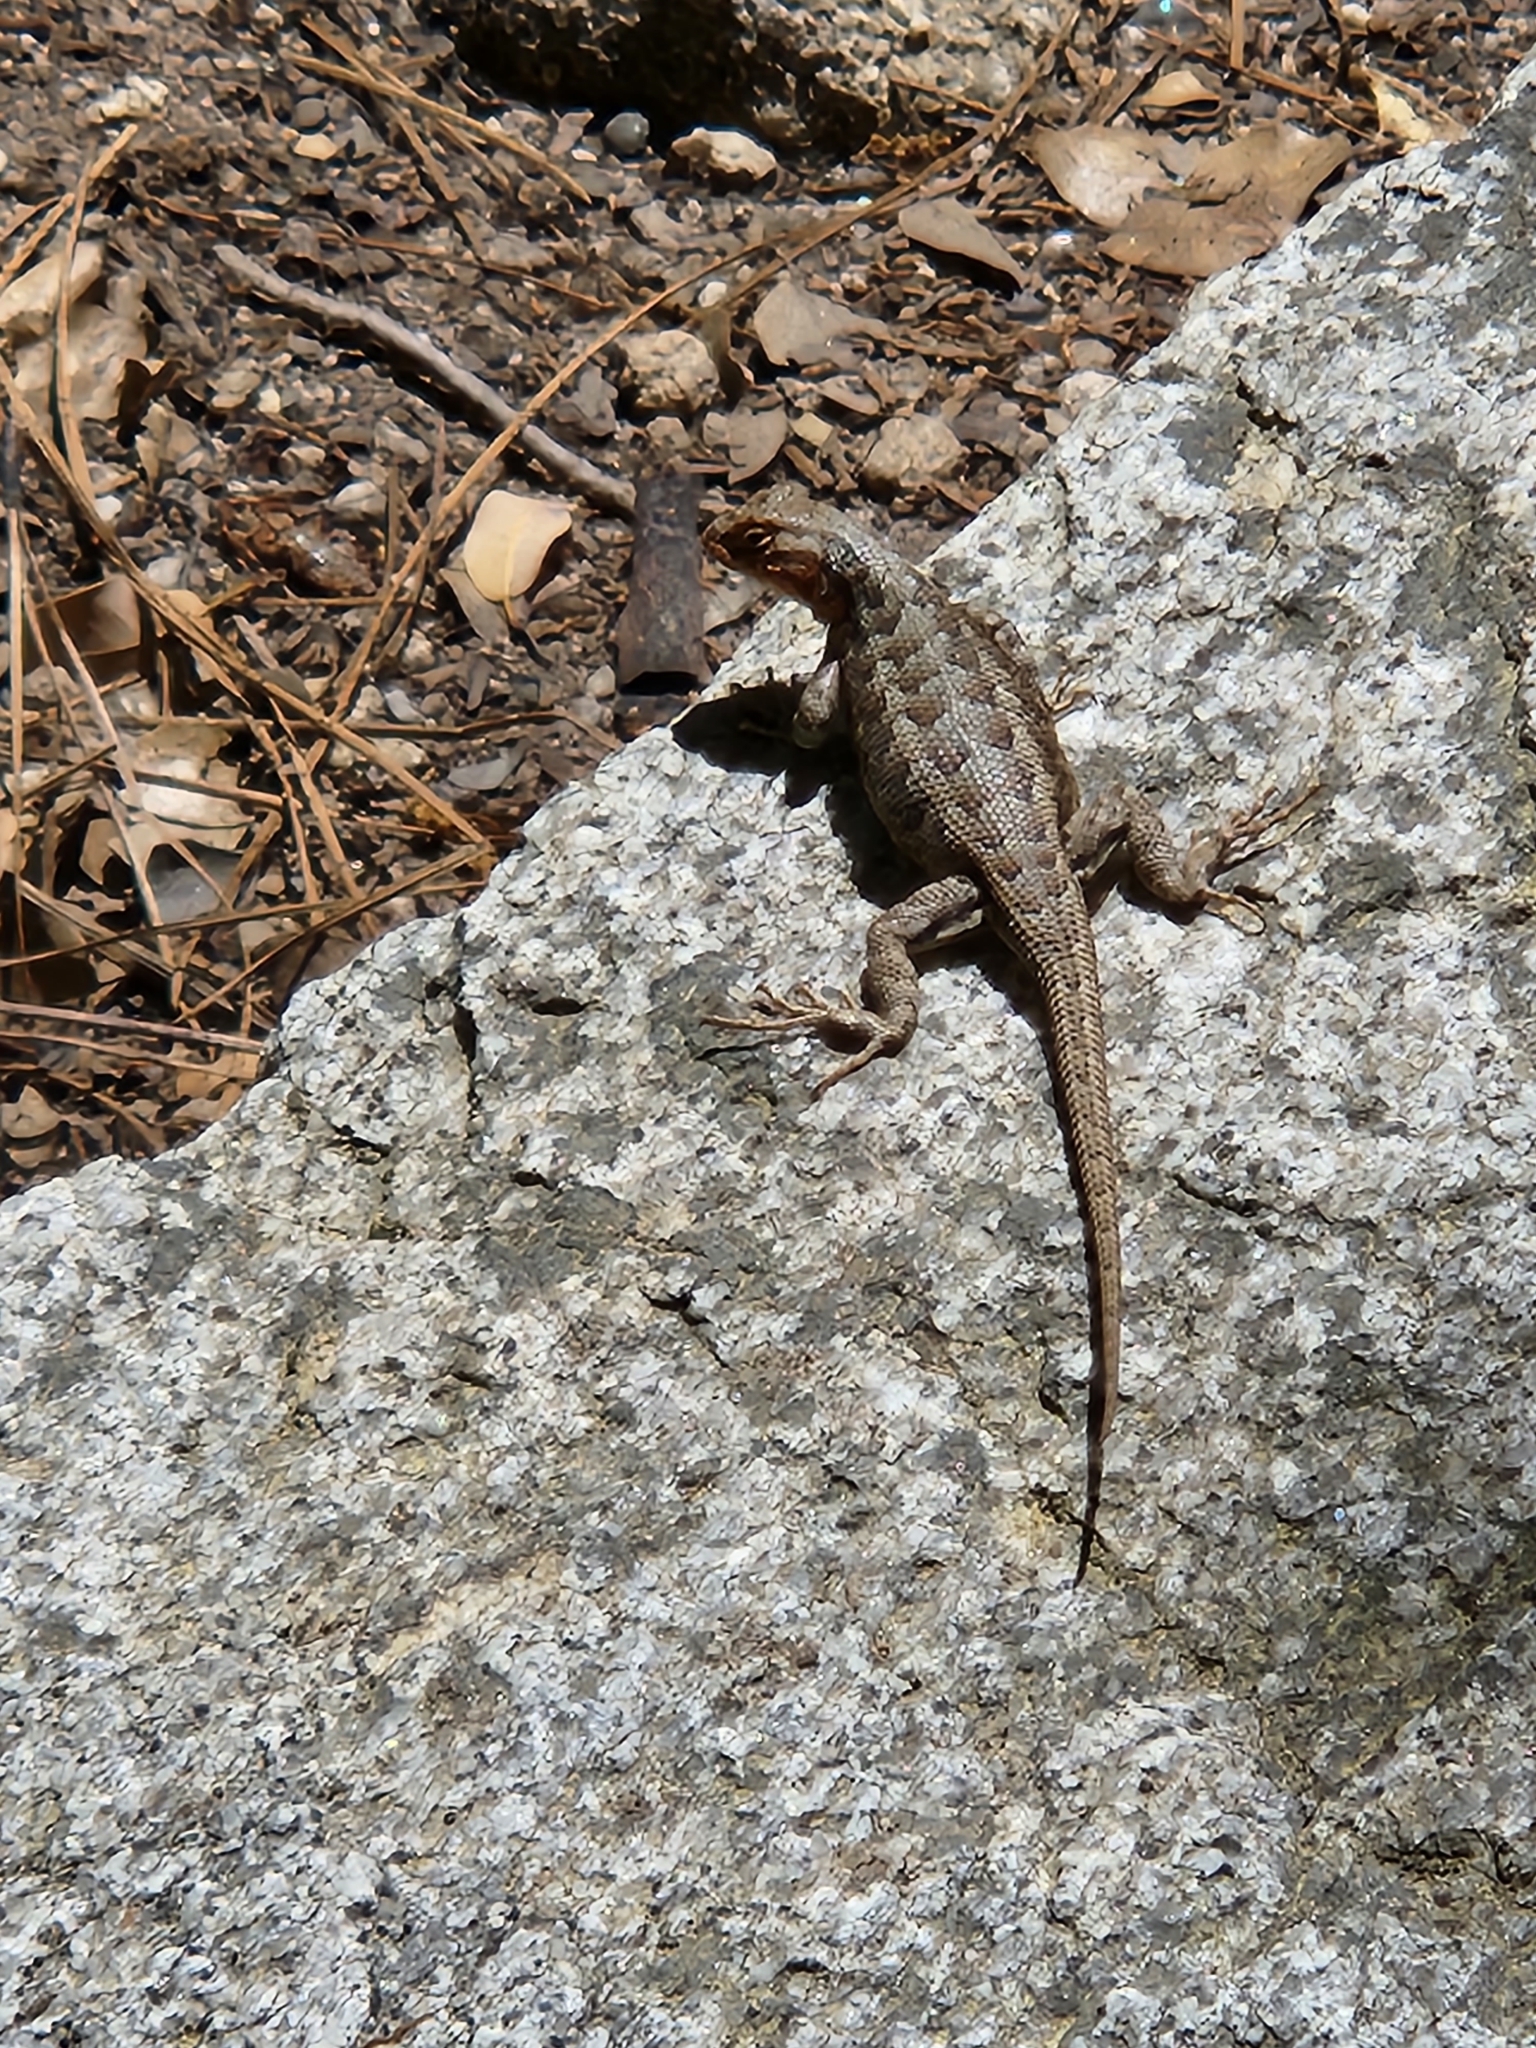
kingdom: Animalia
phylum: Chordata
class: Squamata
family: Phrynosomatidae
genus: Sceloporus
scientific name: Sceloporus graciosus
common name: Sagebrush lizard
